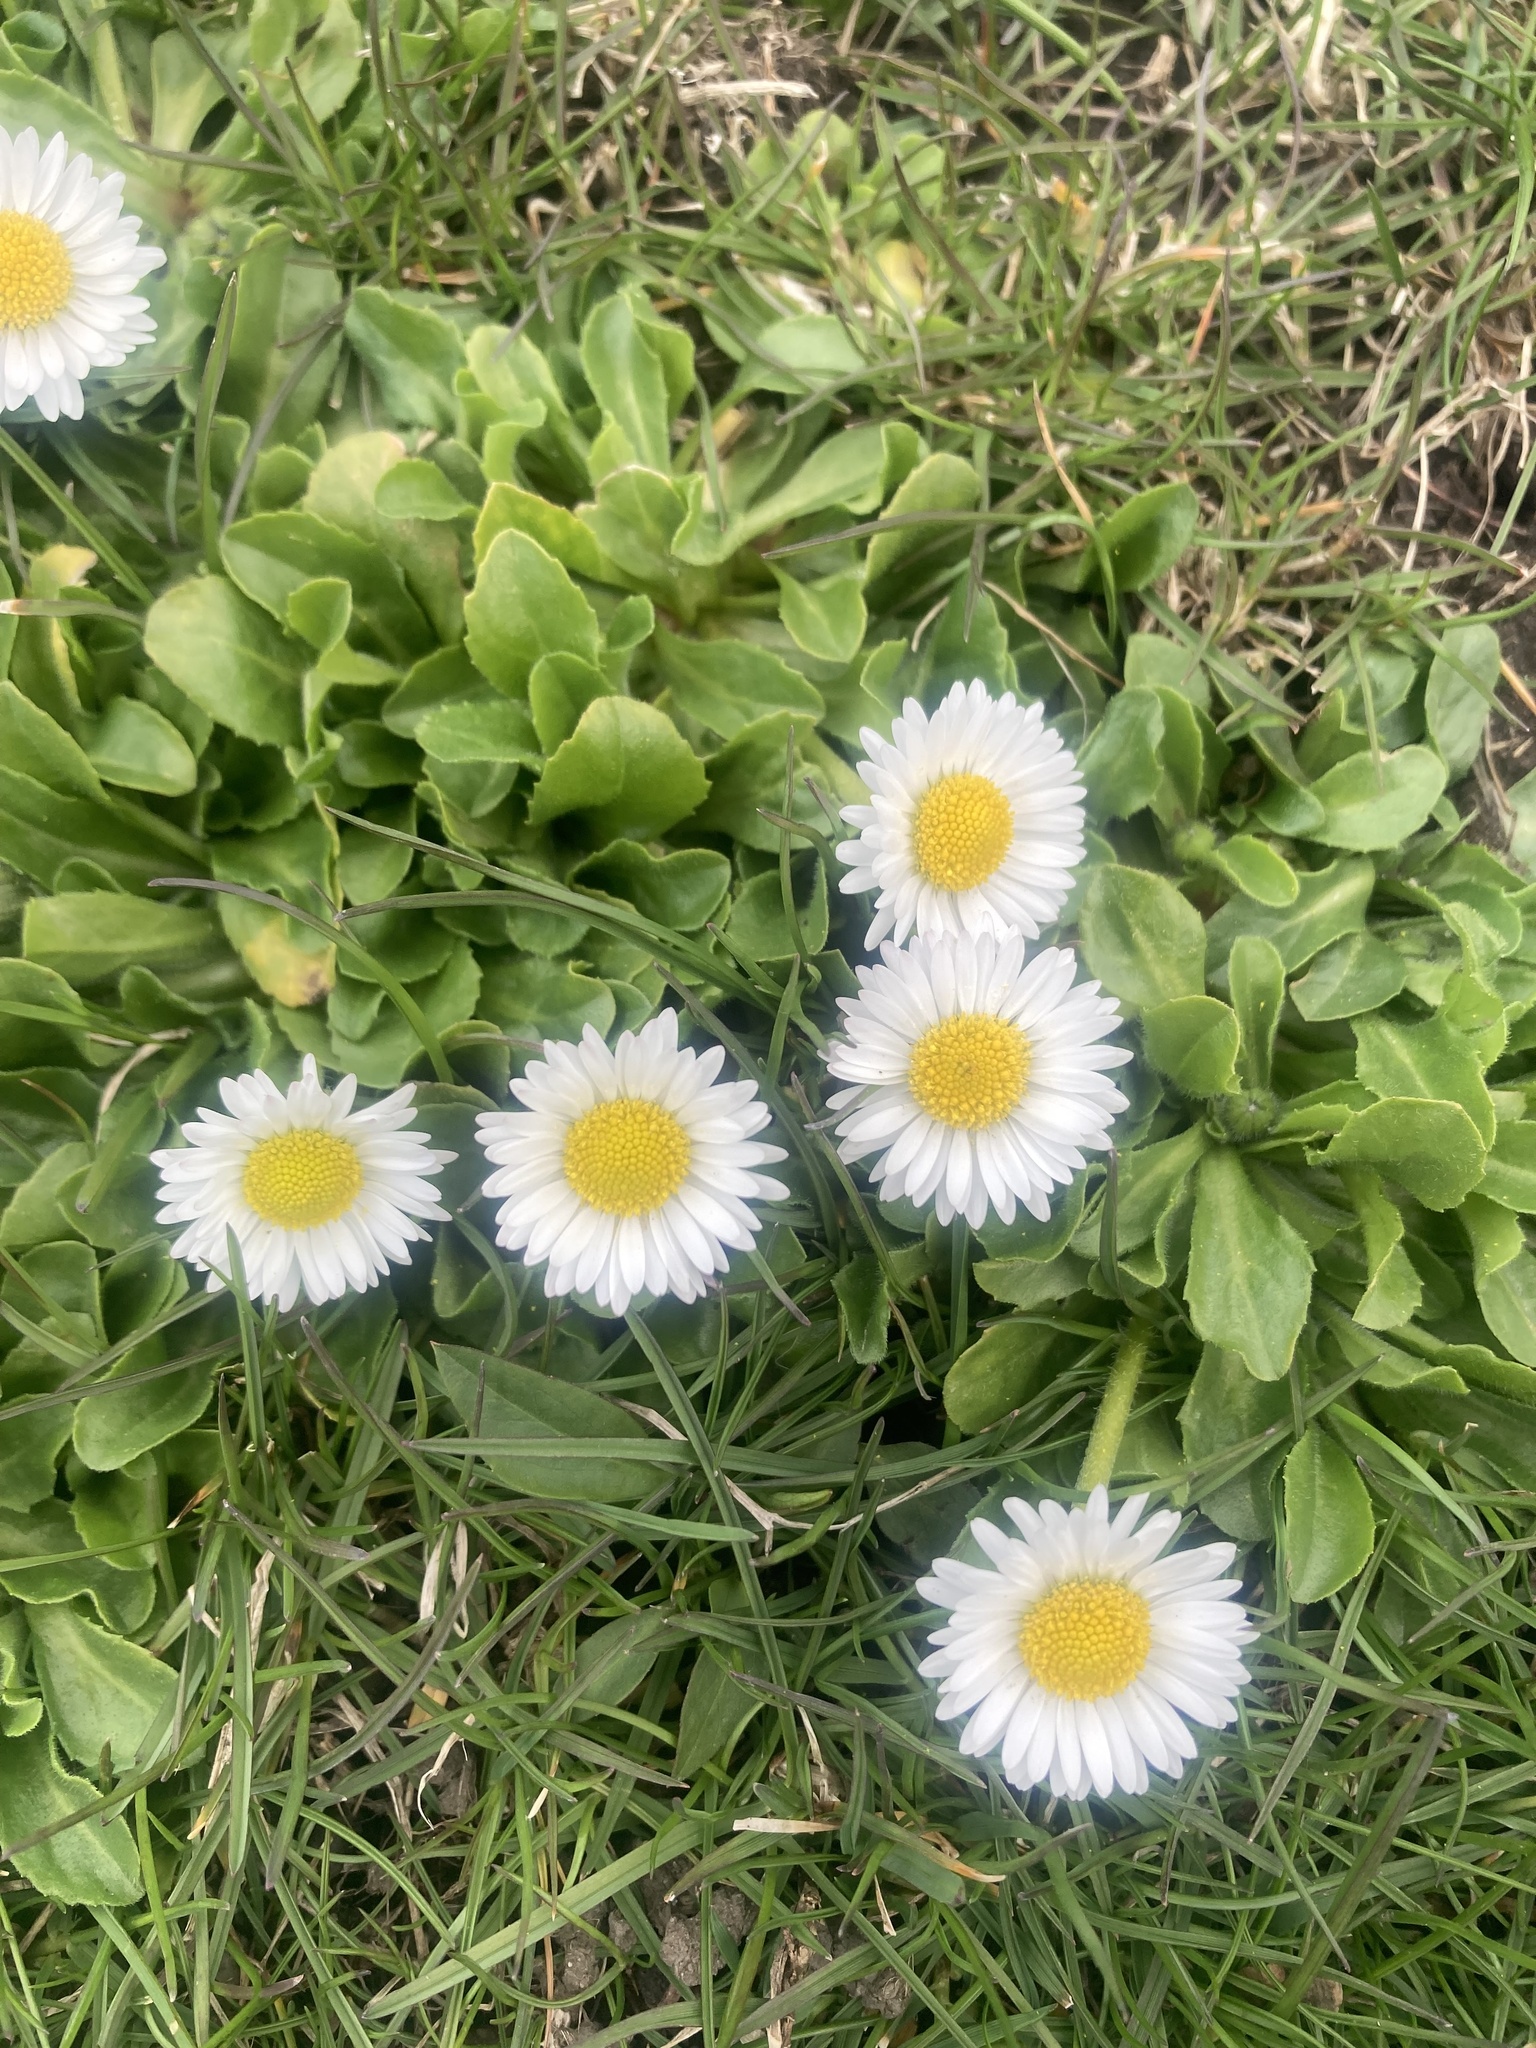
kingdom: Plantae
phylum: Tracheophyta
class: Magnoliopsida
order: Asterales
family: Asteraceae
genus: Bellis
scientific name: Bellis perennis
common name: Lawndaisy
